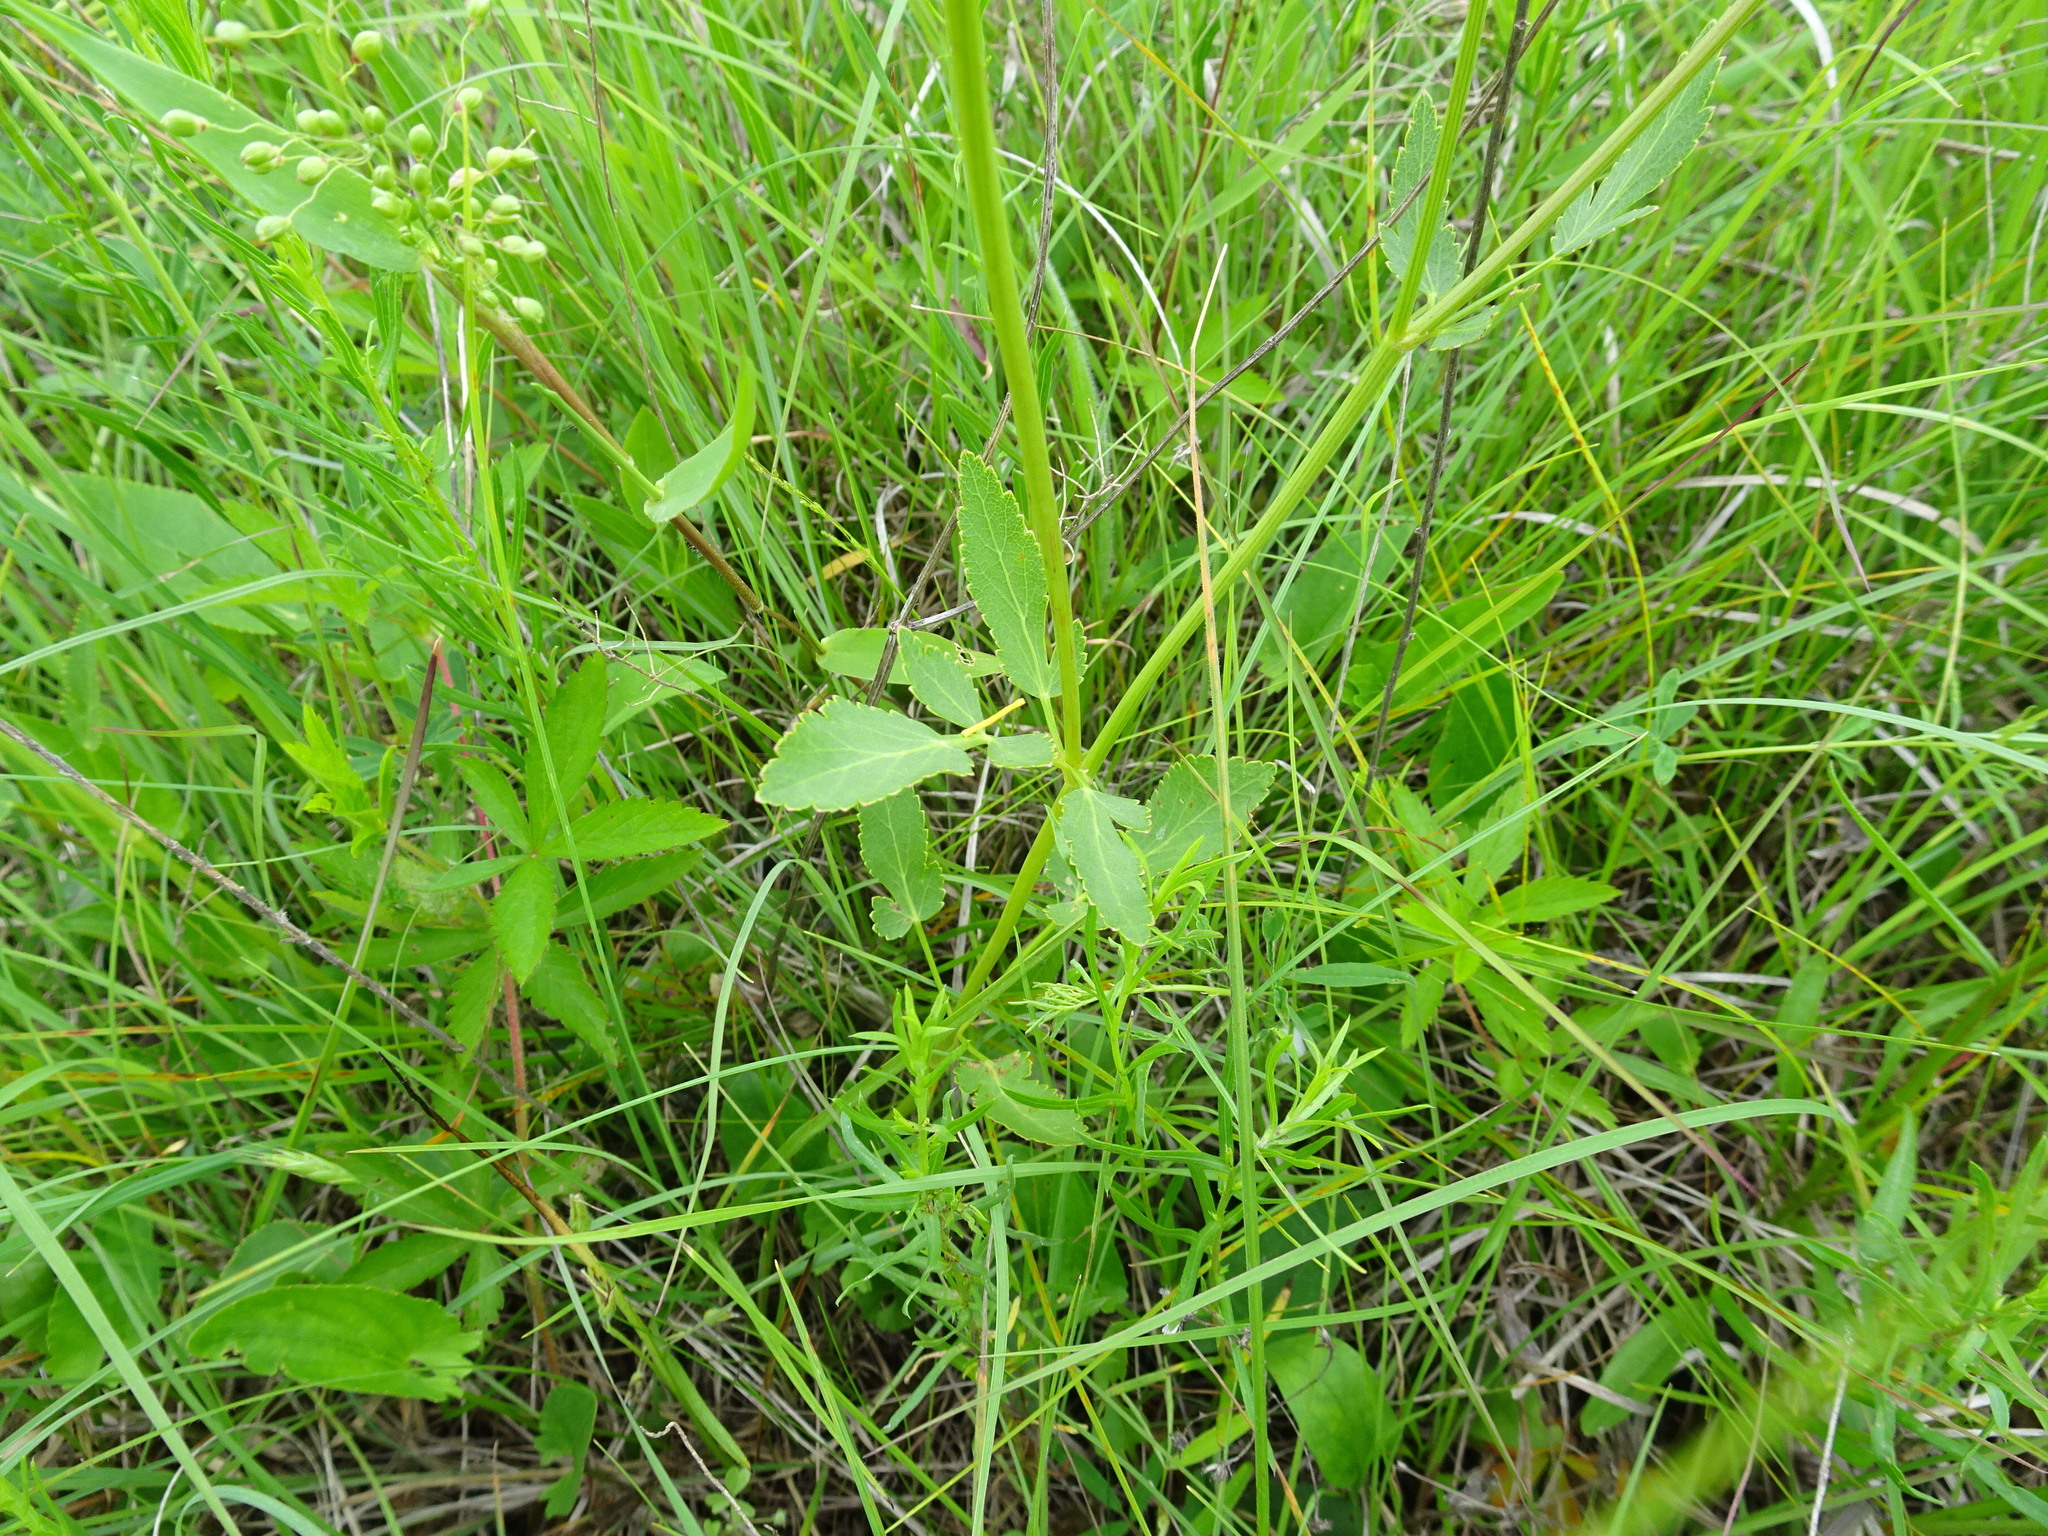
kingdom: Plantae
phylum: Tracheophyta
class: Magnoliopsida
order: Apiales
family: Apiaceae
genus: Zizia
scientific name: Zizia aurea
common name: Golden alexanders
